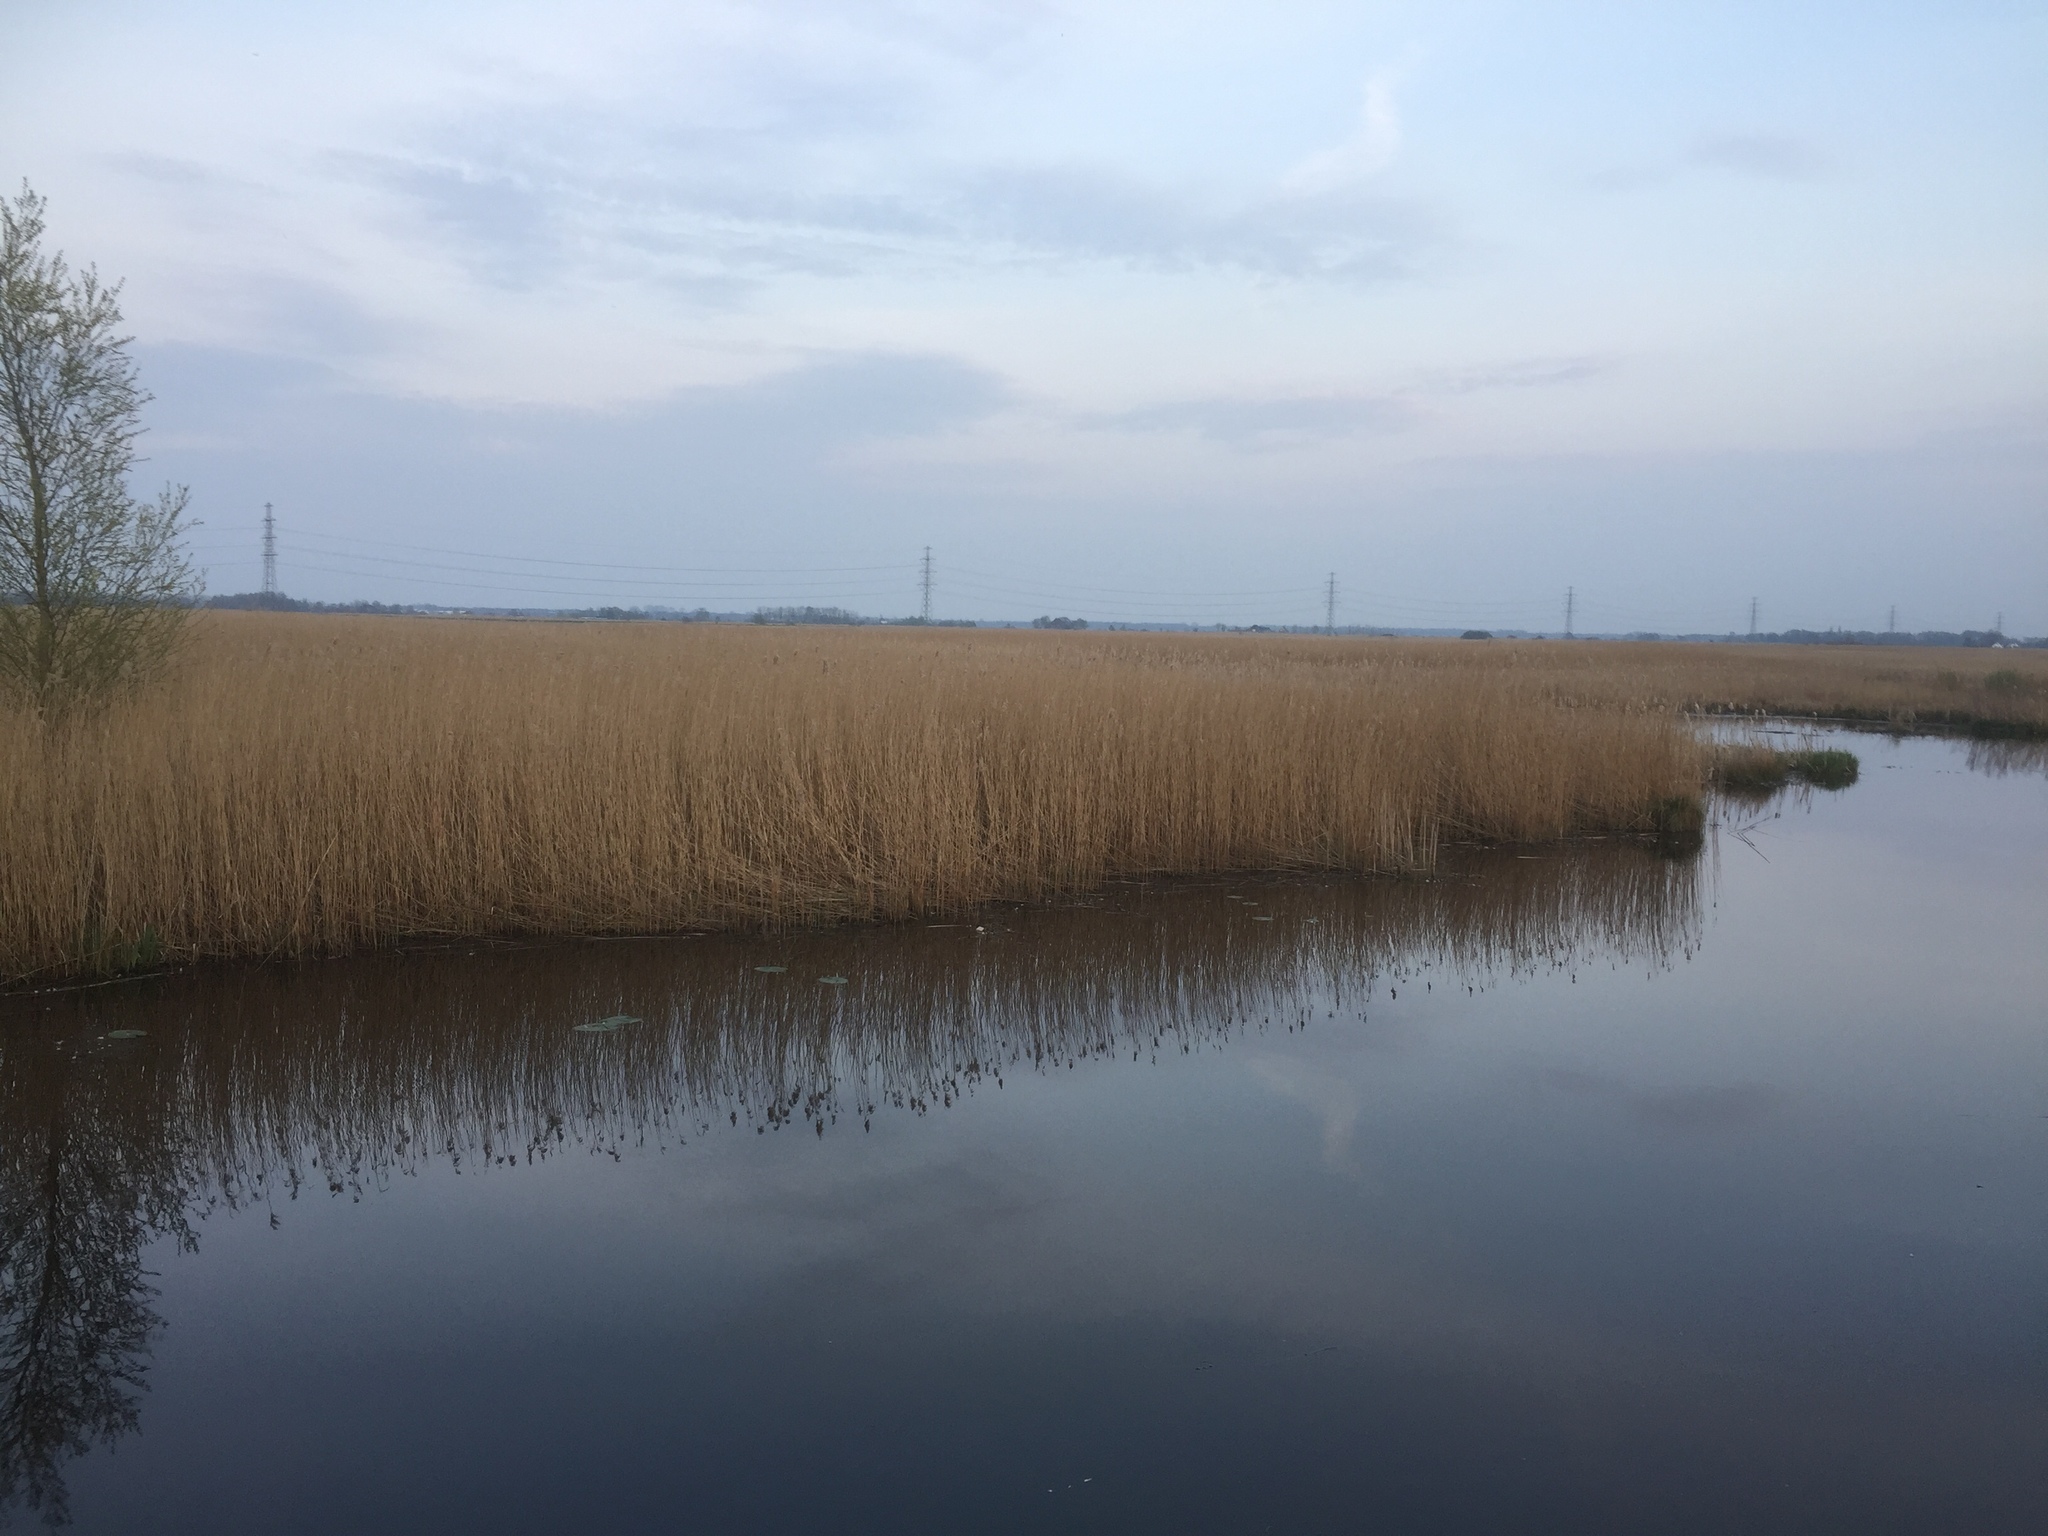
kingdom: Plantae
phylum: Tracheophyta
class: Liliopsida
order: Poales
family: Poaceae
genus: Phragmites
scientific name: Phragmites australis
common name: Common reed
